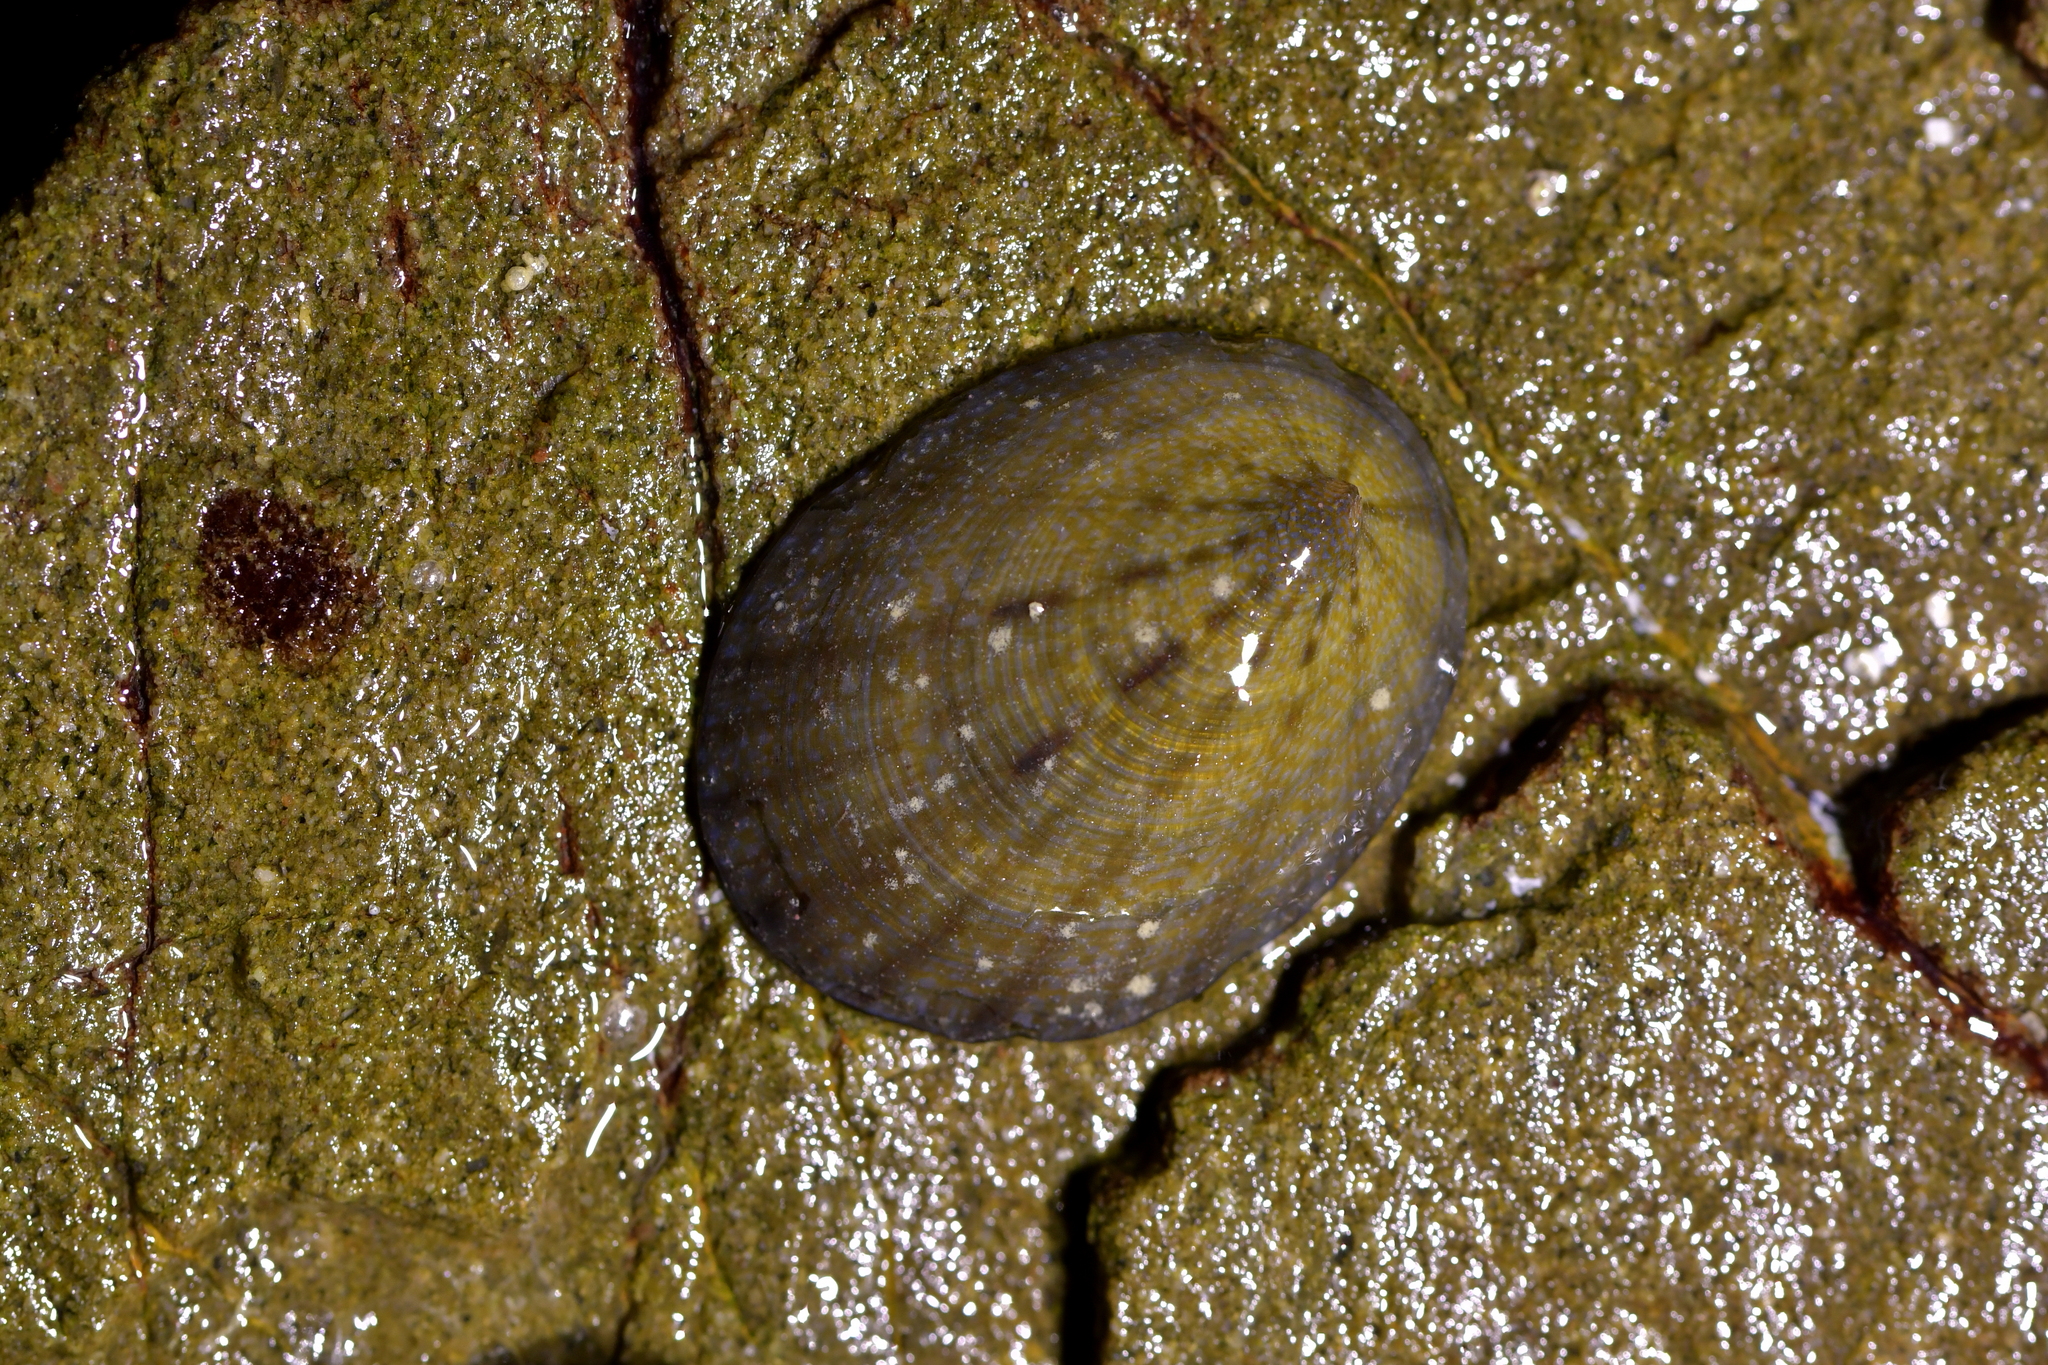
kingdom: Animalia
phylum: Mollusca
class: Gastropoda
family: Nacellidae
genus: Cellana
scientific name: Cellana radians
